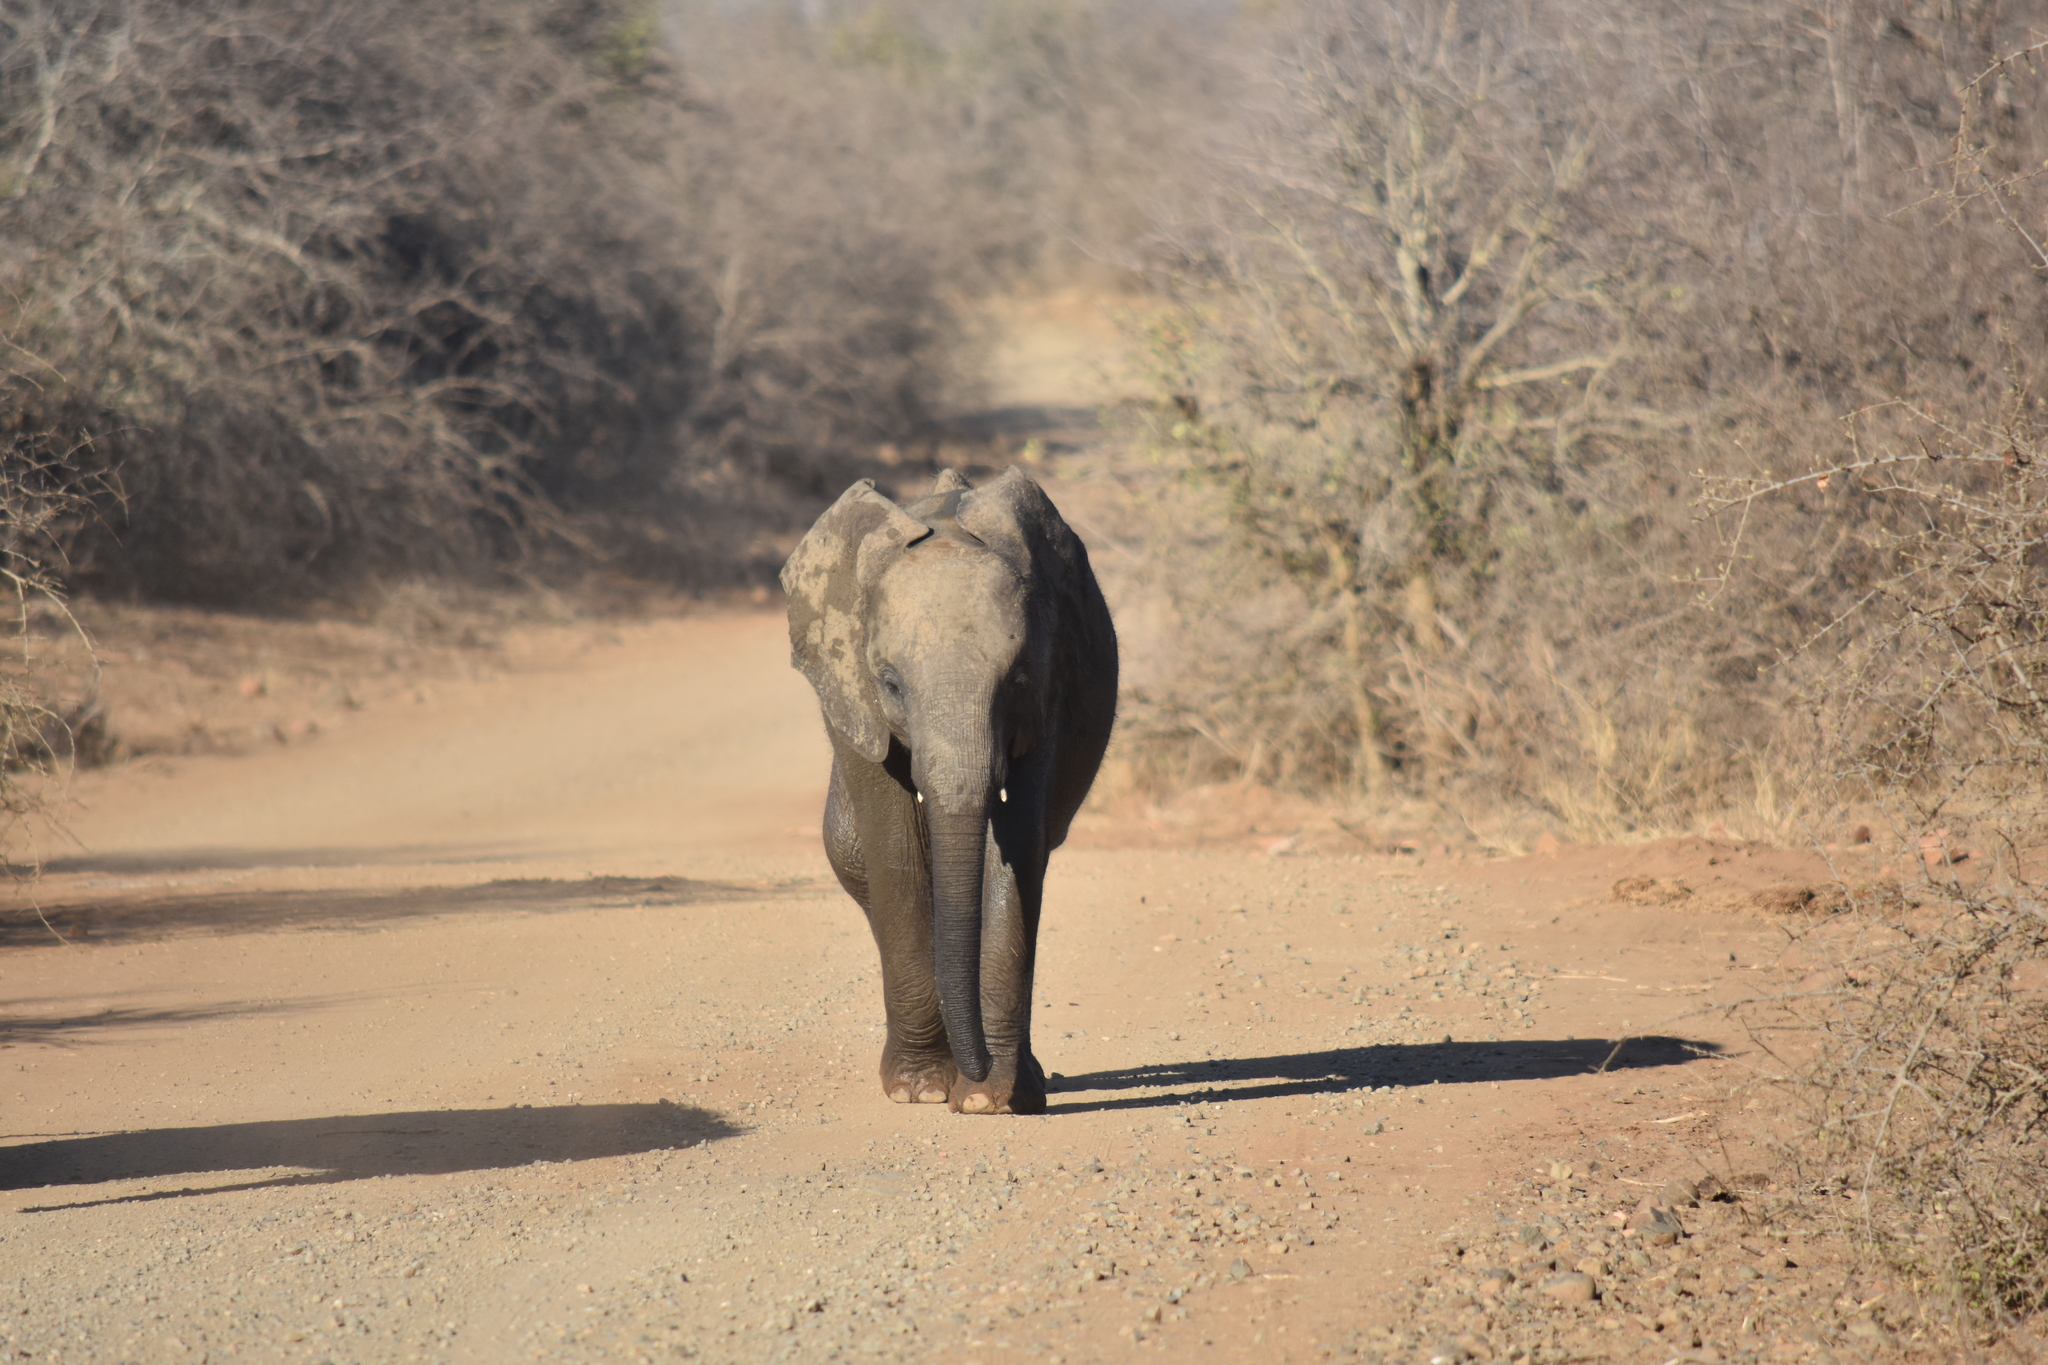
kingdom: Animalia
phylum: Chordata
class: Mammalia
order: Proboscidea
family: Elephantidae
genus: Loxodonta
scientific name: Loxodonta africana
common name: African elephant
